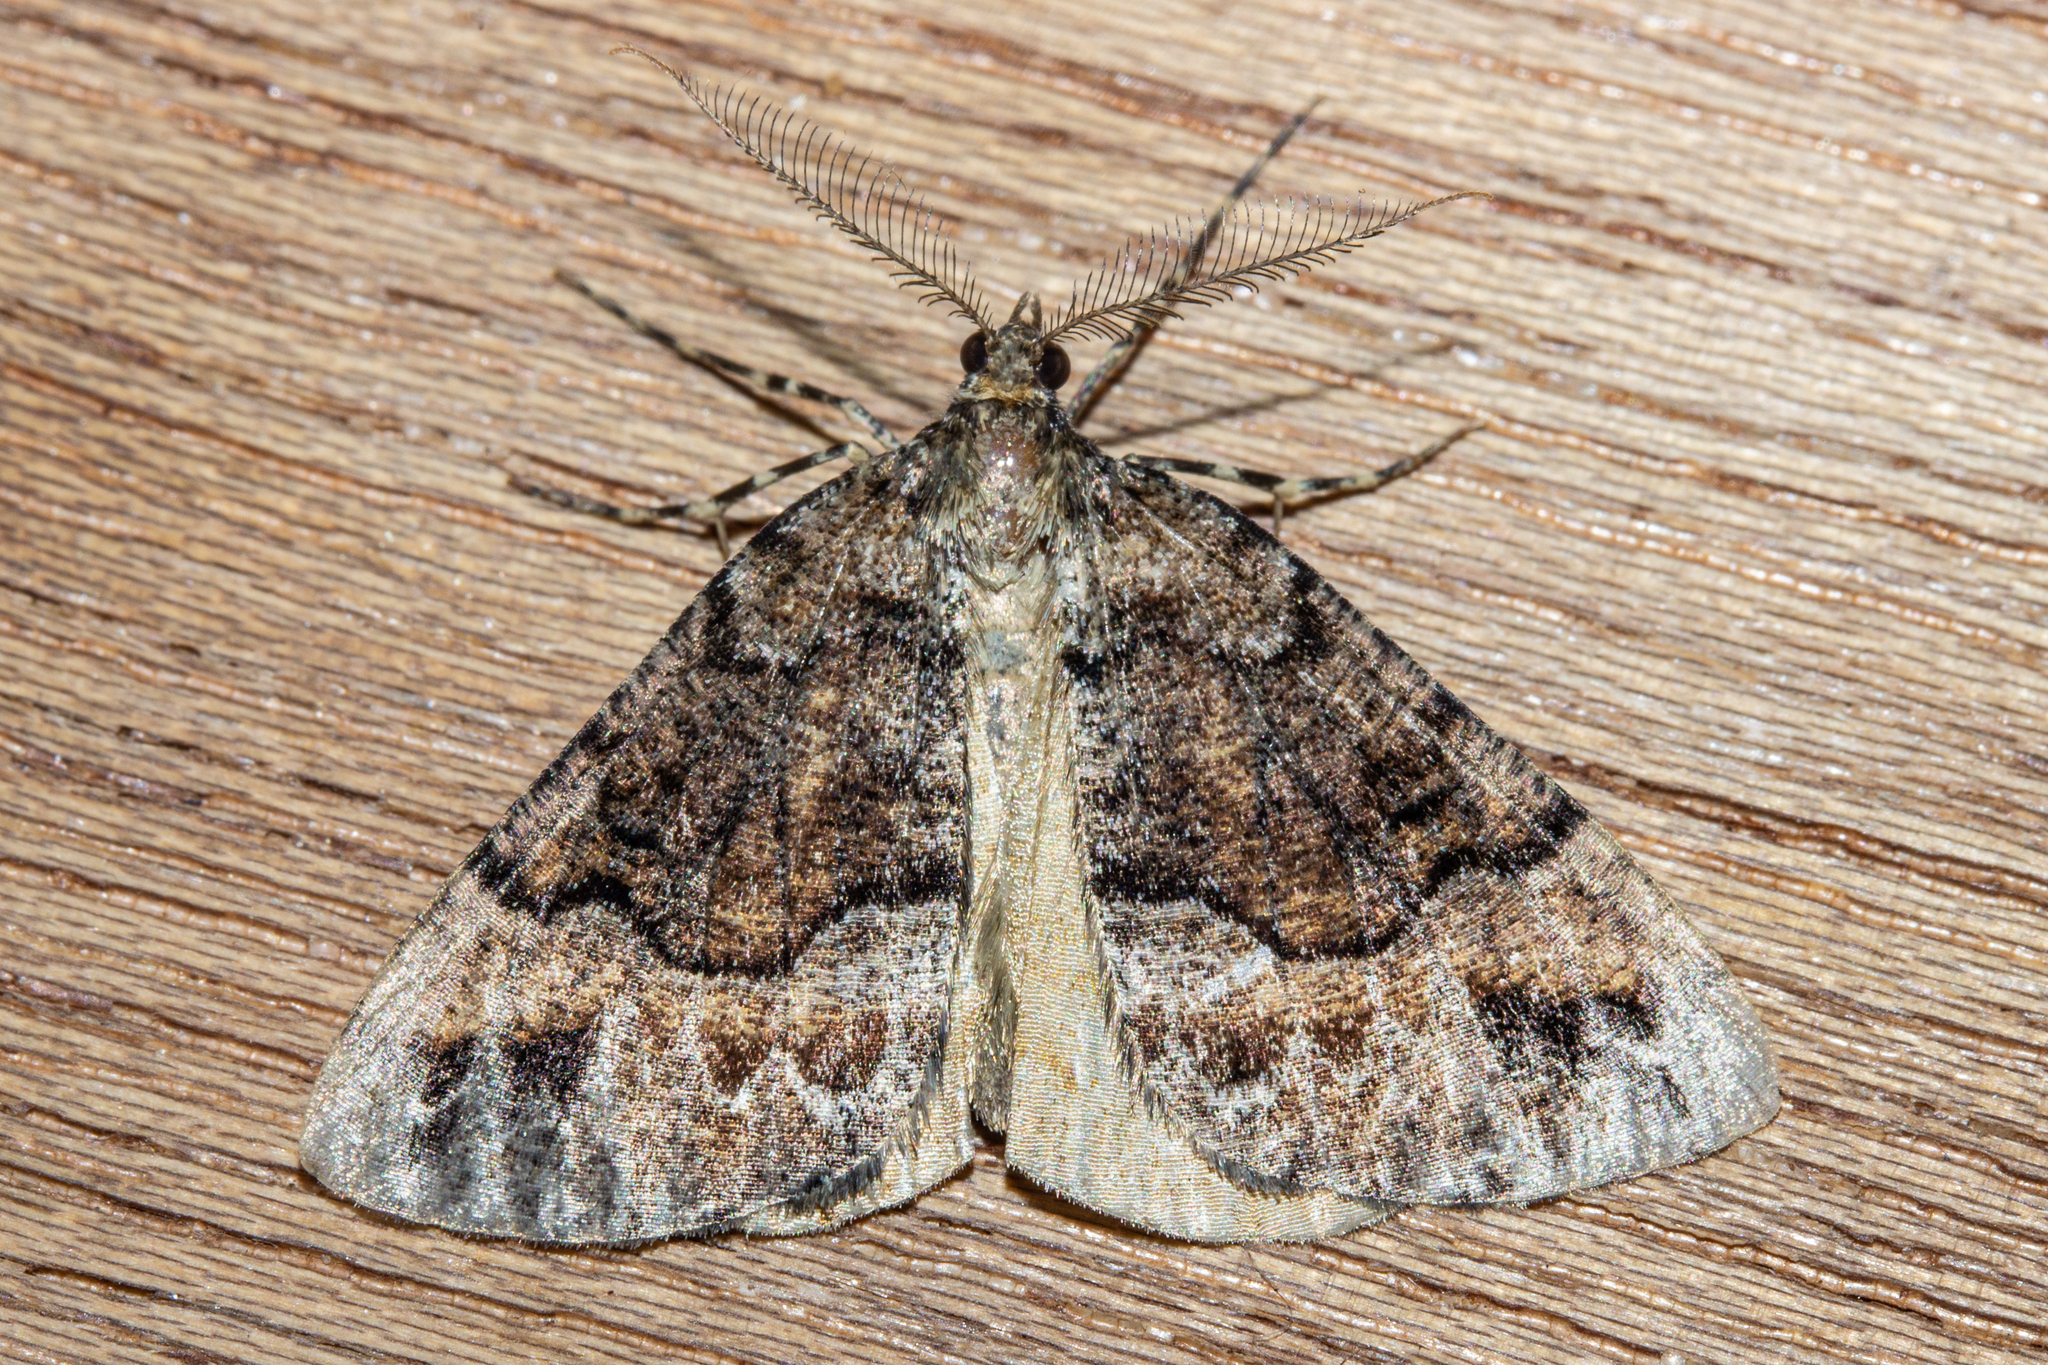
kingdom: Animalia
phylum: Arthropoda
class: Insecta
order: Lepidoptera
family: Geometridae
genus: Pseudocoremia
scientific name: Pseudocoremia colpogramma
